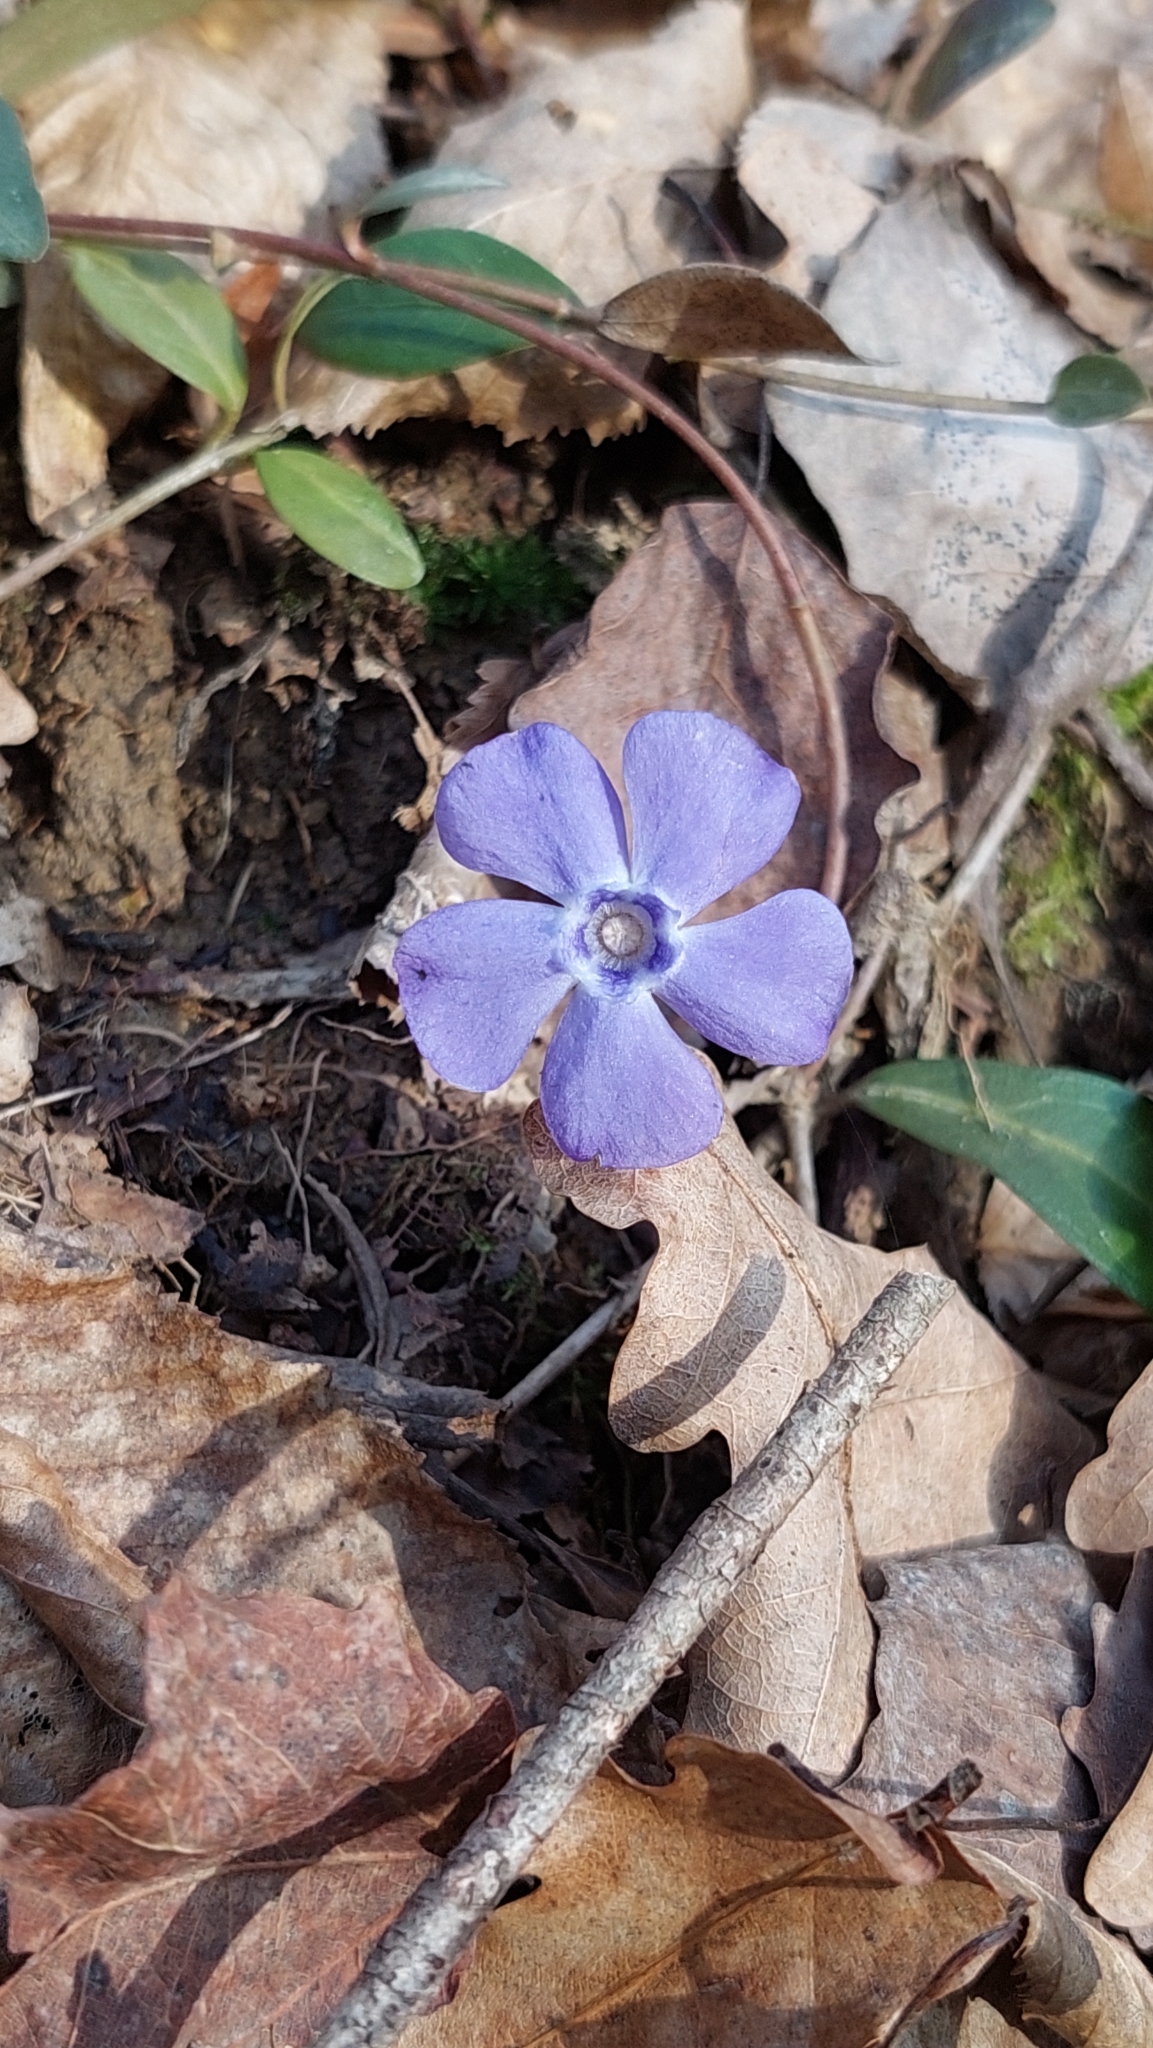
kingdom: Plantae
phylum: Tracheophyta
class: Magnoliopsida
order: Gentianales
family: Apocynaceae
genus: Vinca
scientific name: Vinca minor
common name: Lesser periwinkle
